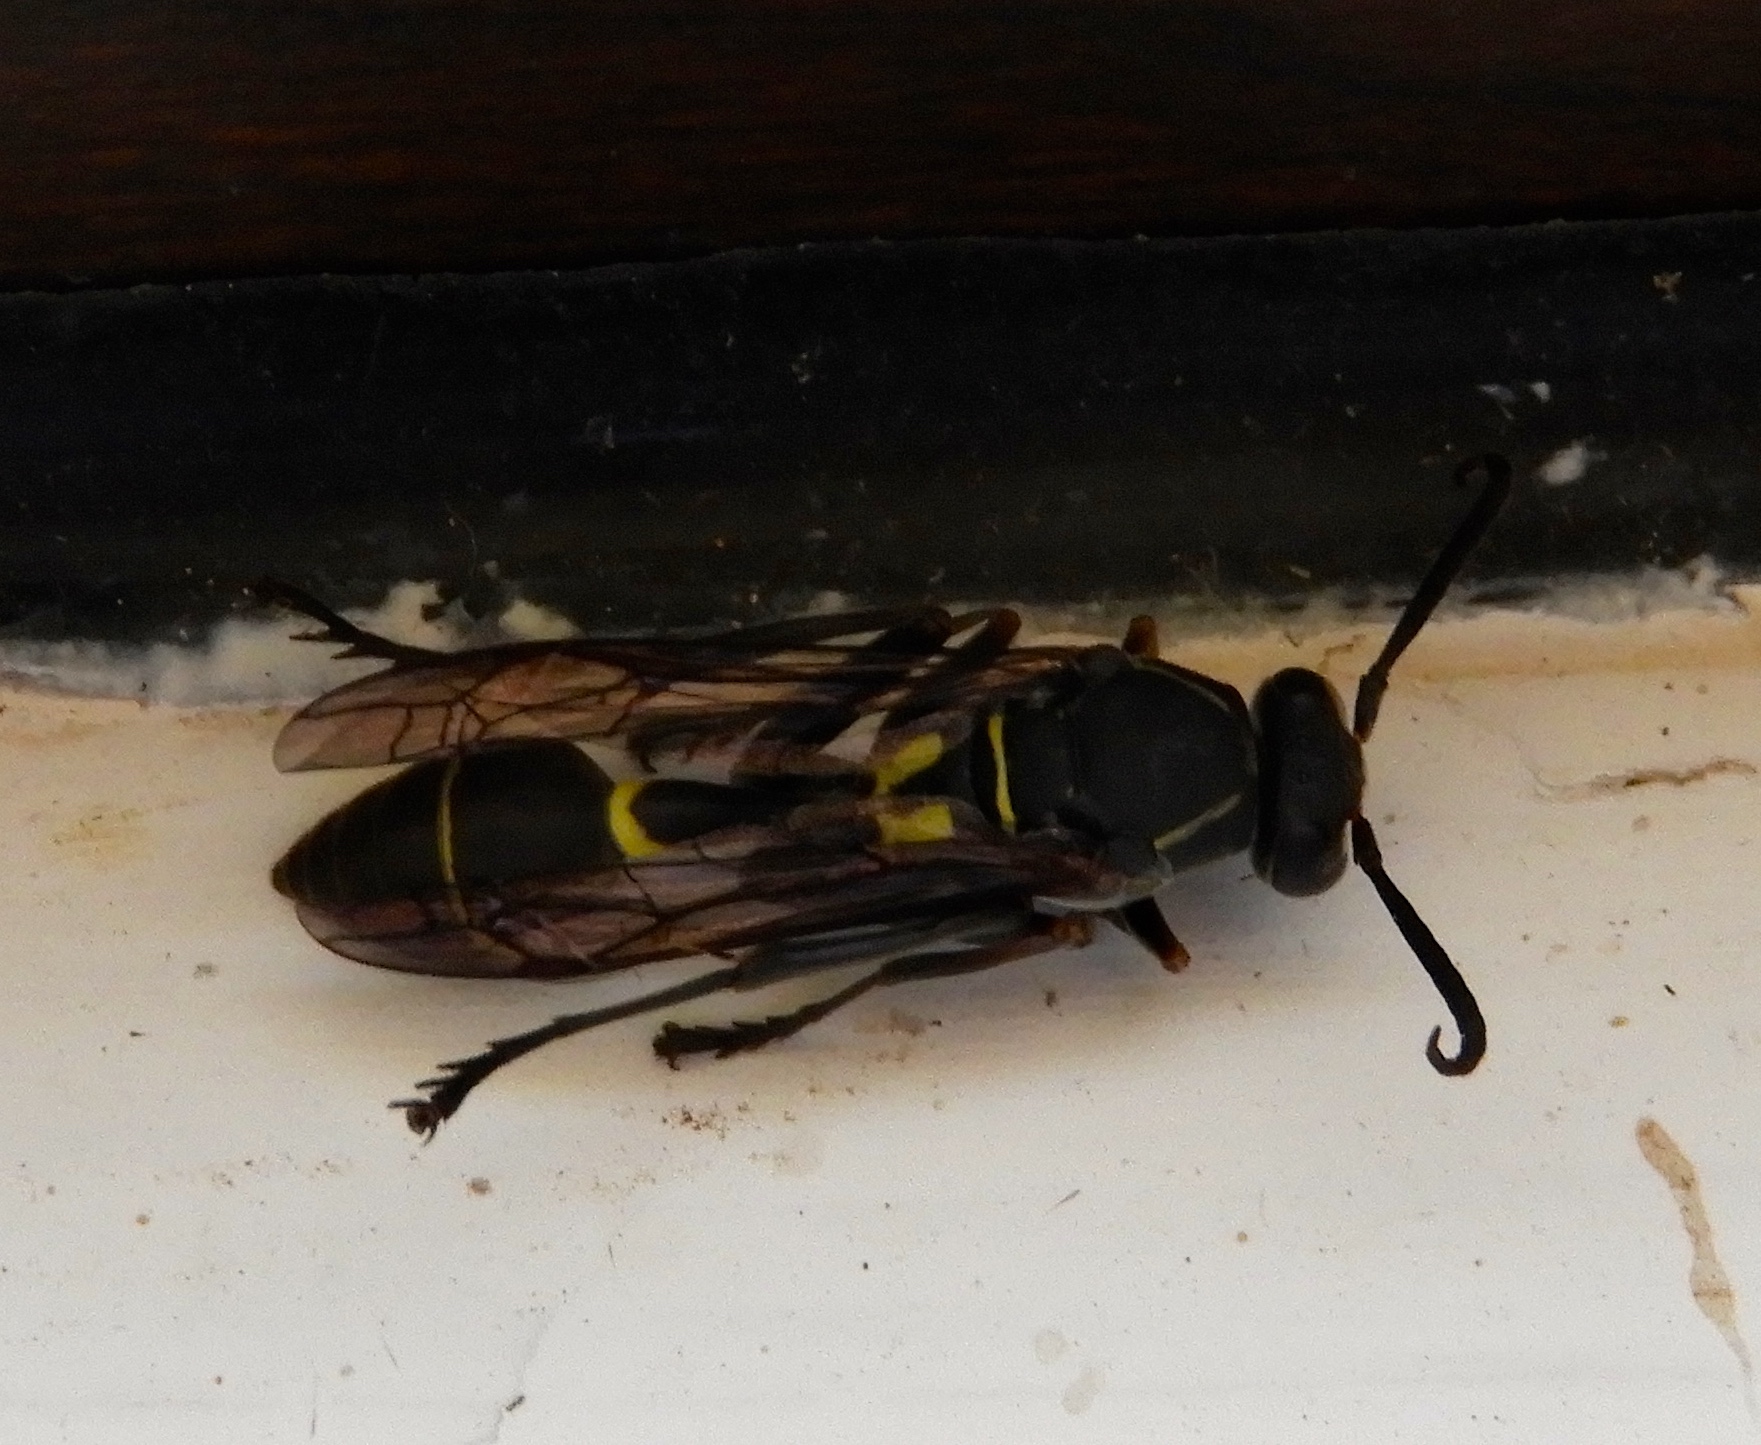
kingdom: Animalia
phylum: Arthropoda
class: Insecta
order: Hymenoptera
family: Vespidae
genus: Mischocyttarus
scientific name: Mischocyttarus
